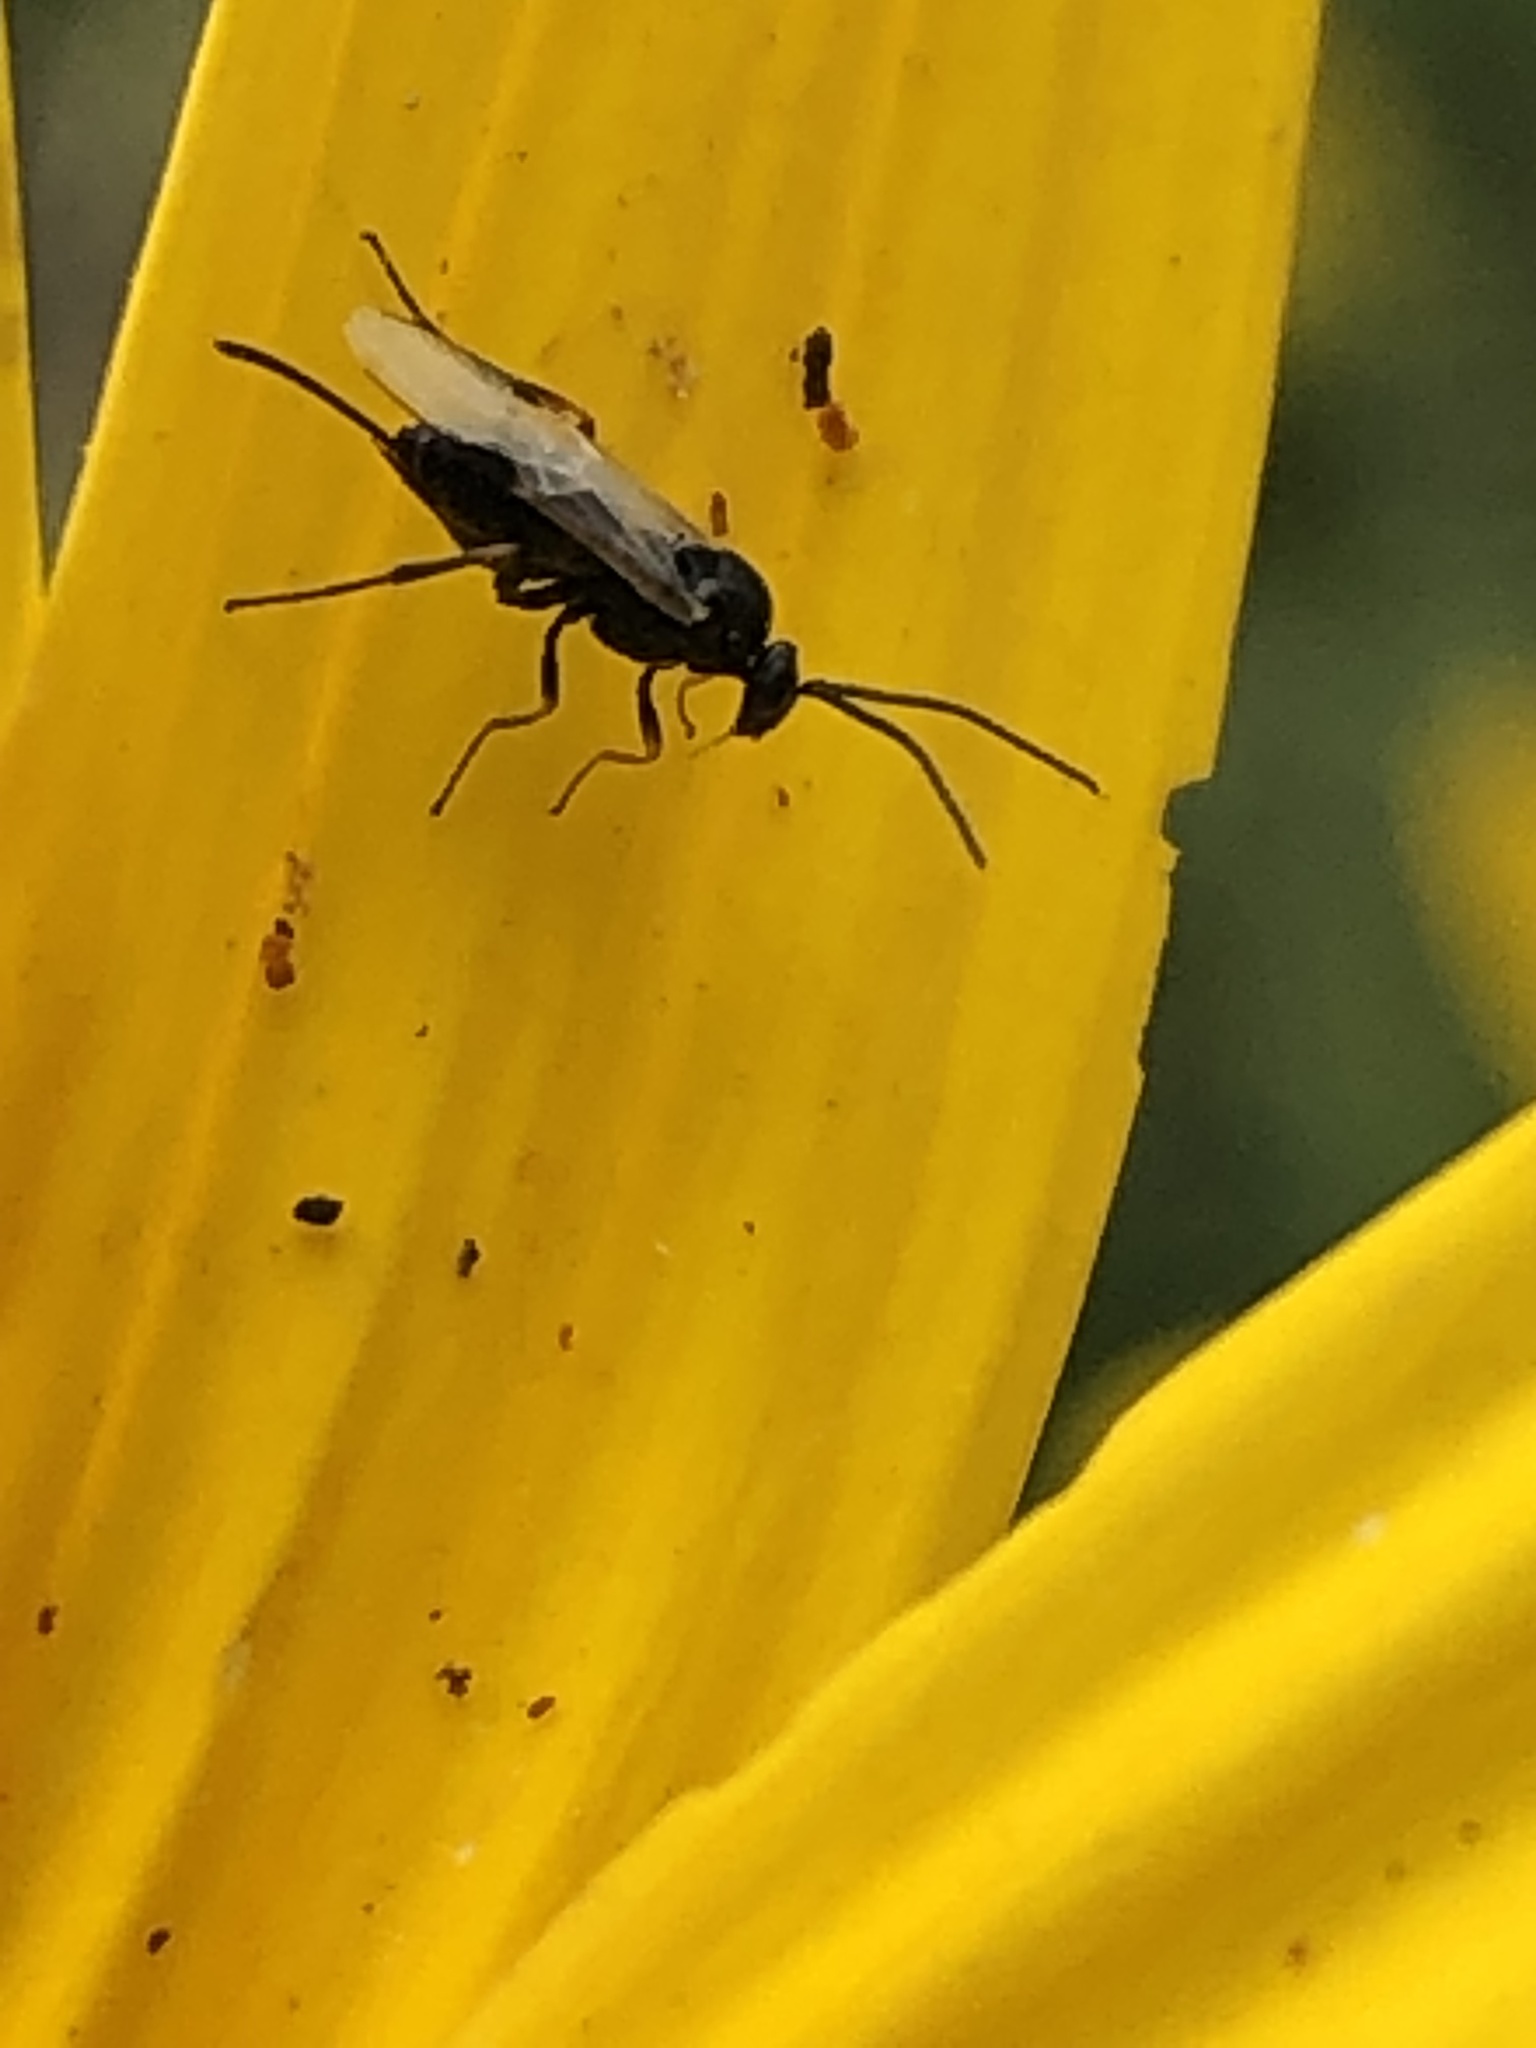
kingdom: Animalia
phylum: Arthropoda
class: Insecta
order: Hymenoptera
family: Braconidae
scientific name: Braconidae
